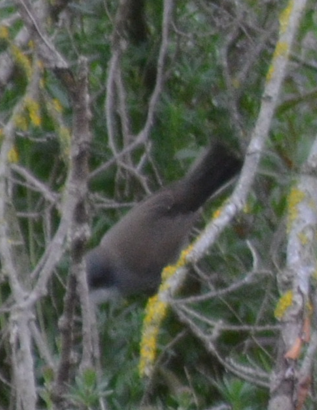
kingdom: Animalia
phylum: Chordata
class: Aves
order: Passeriformes
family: Sylviidae
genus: Curruca
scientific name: Curruca melanocephala
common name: Sardinian warbler
